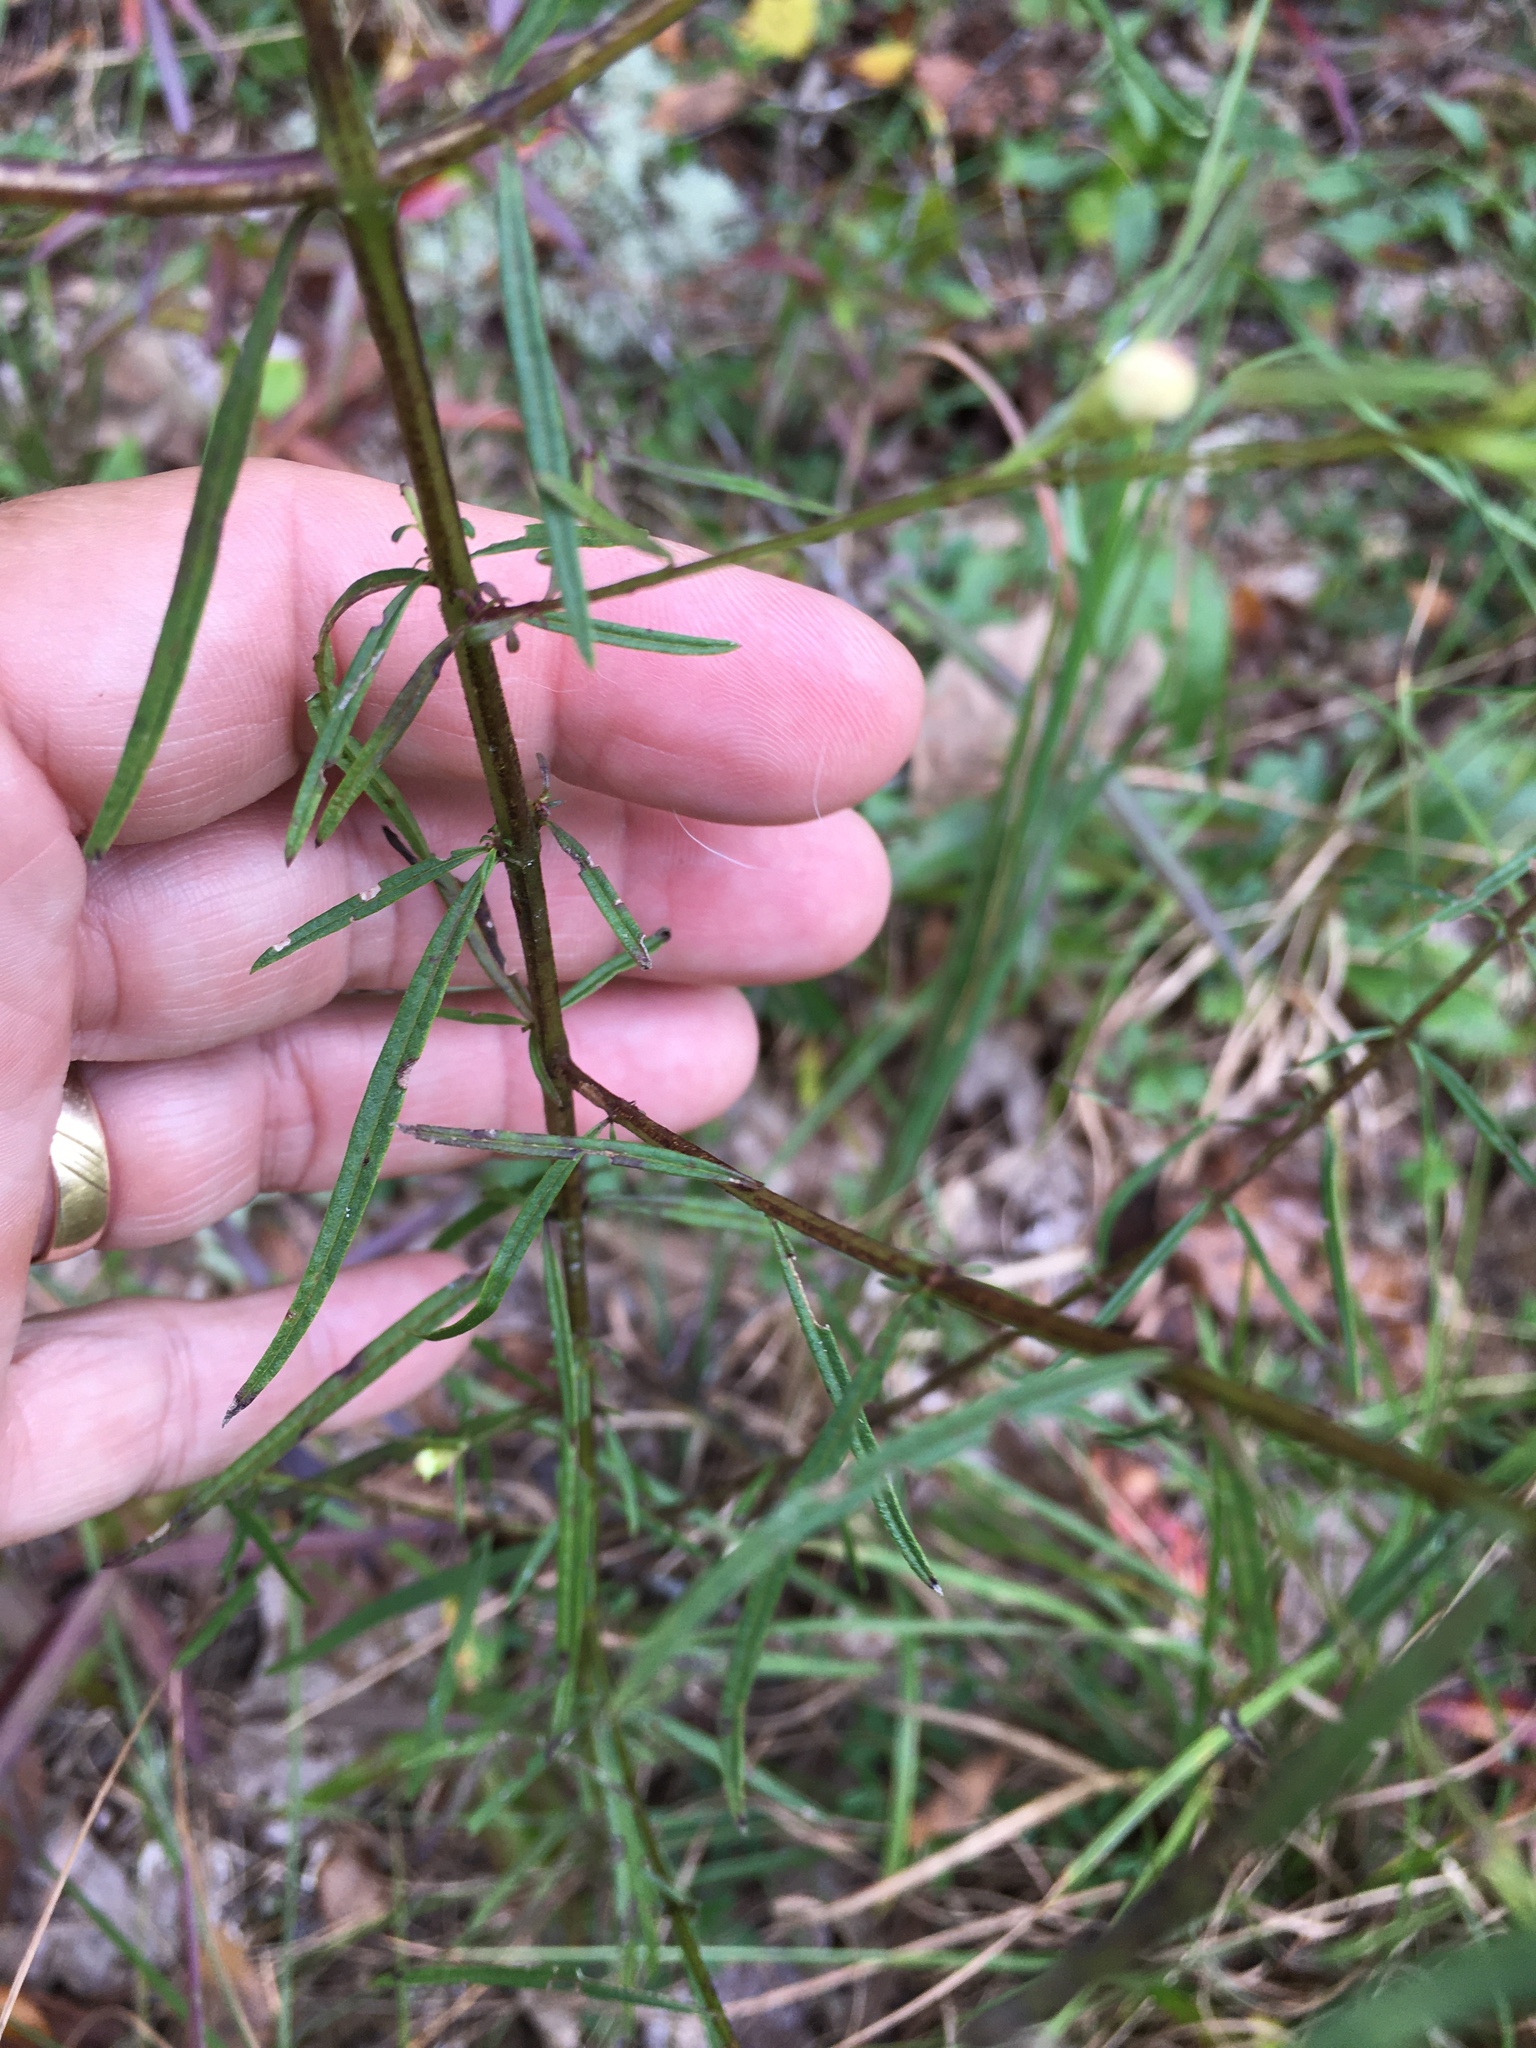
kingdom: Plantae
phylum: Tracheophyta
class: Magnoliopsida
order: Lamiales
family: Orobanchaceae
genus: Agalinis
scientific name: Agalinis purpurea
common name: Purple false foxglove
